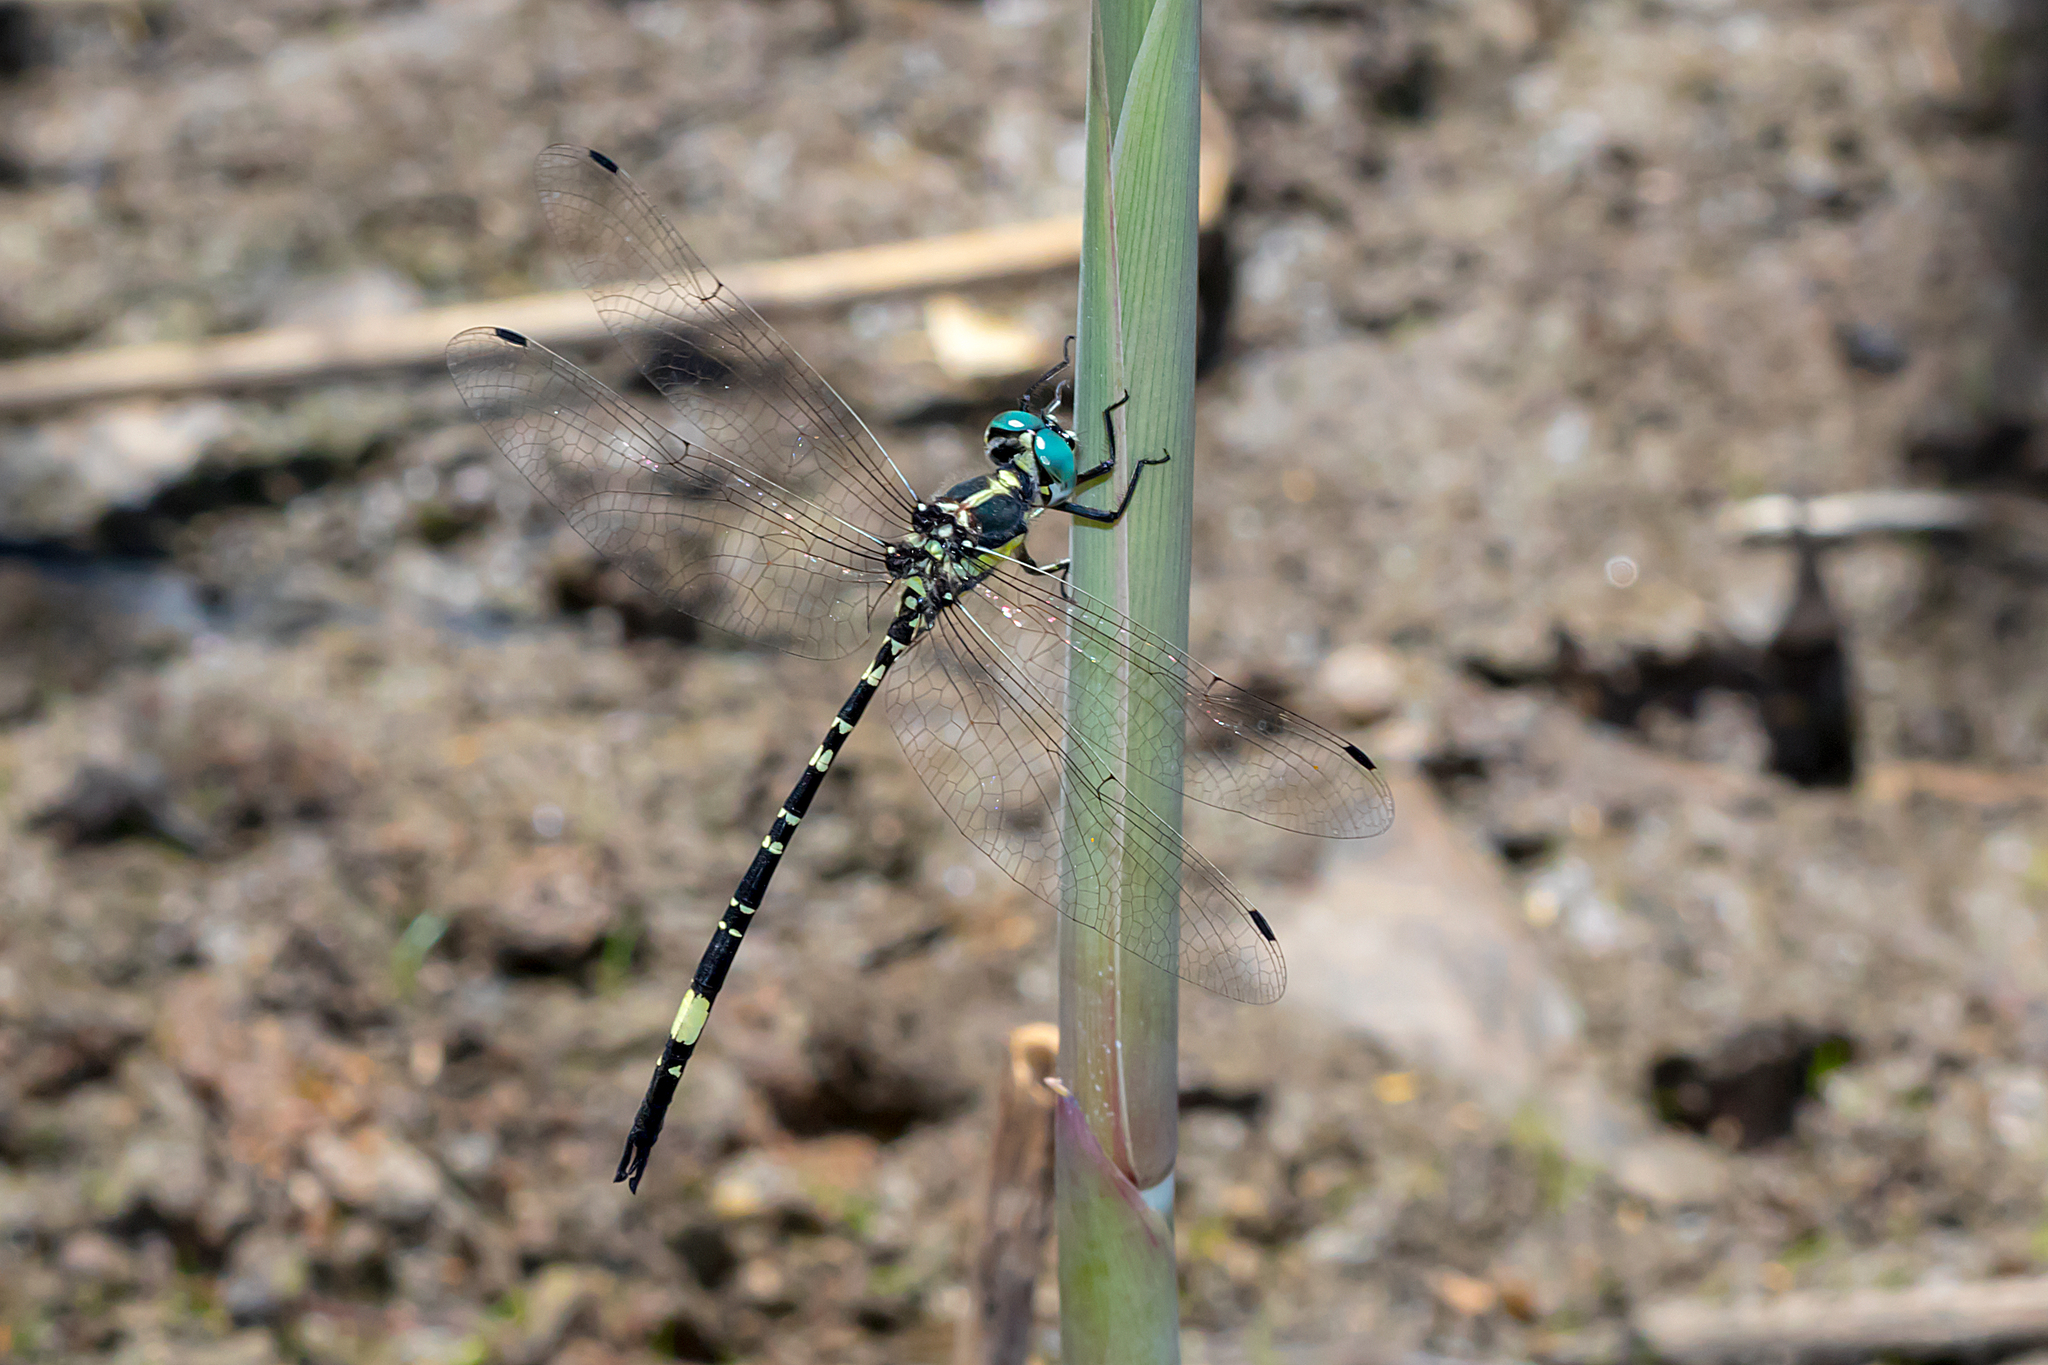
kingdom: Animalia
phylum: Arthropoda
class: Insecta
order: Odonata
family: Synthemistidae
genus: Parasynthemis
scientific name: Parasynthemis regina
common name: Royal tigertail
